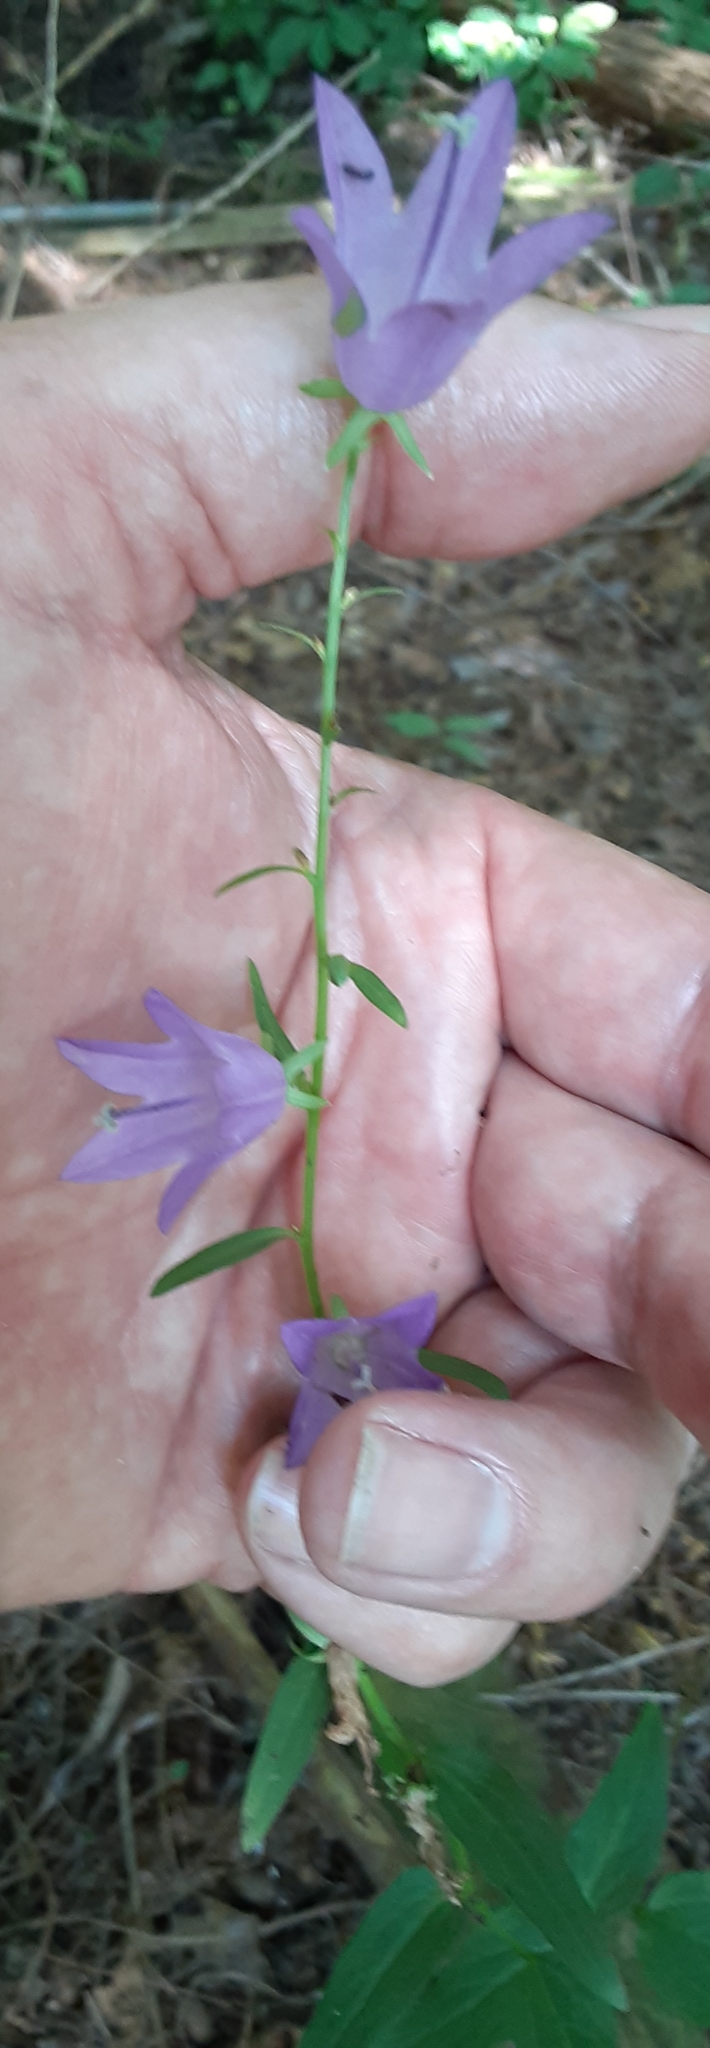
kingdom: Plantae
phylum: Tracheophyta
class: Magnoliopsida
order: Asterales
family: Campanulaceae
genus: Campanula
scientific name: Campanula rapunculoides
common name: Creeping bellflower
